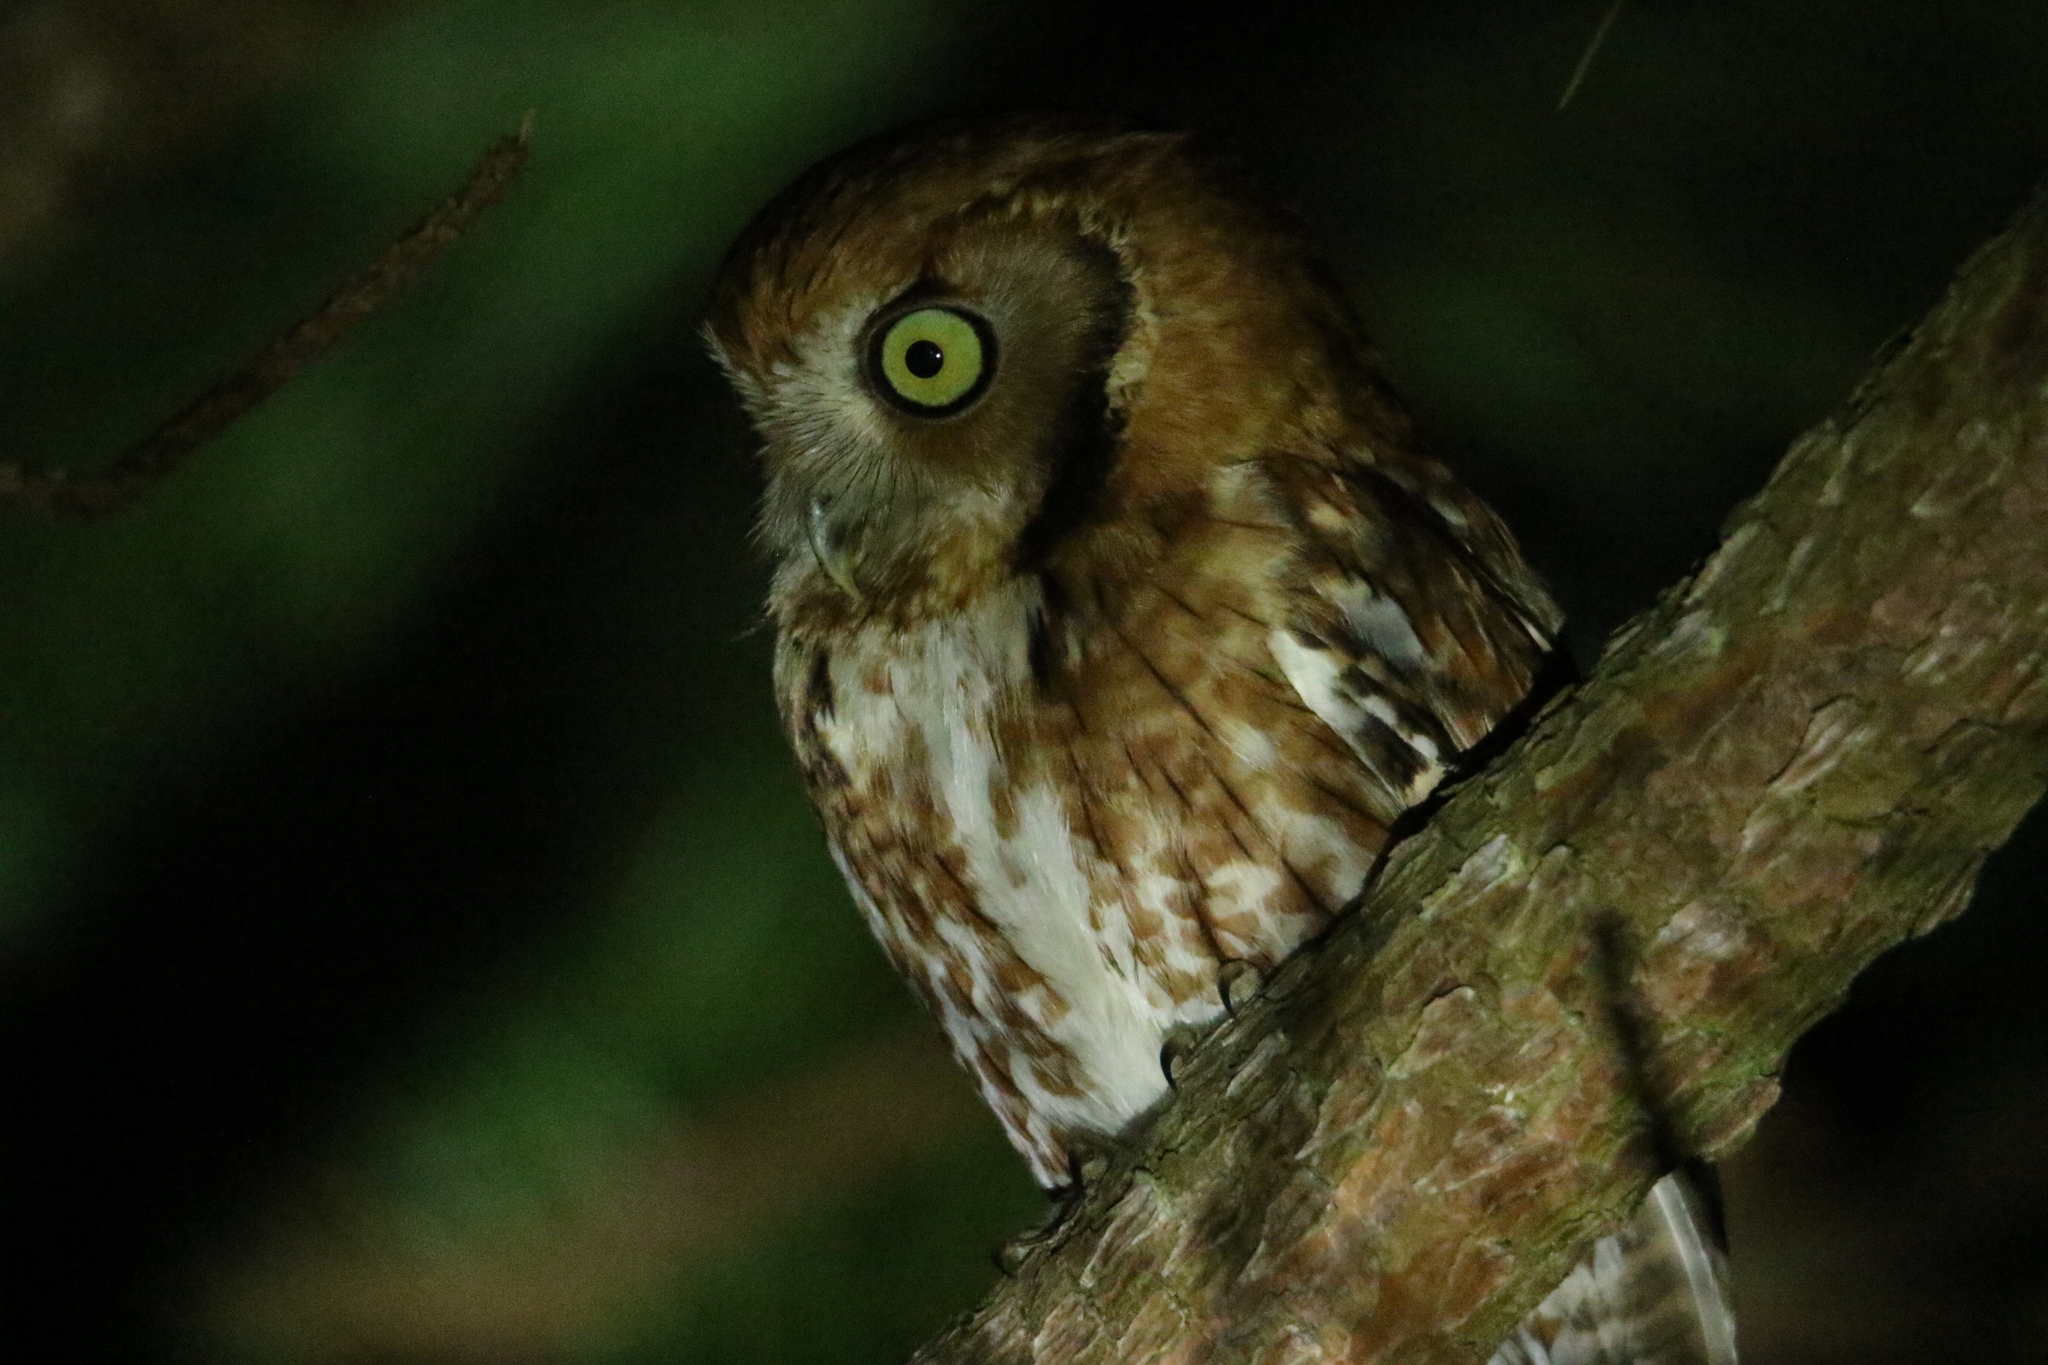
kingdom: Animalia
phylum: Chordata
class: Aves
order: Strigiformes
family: Strigidae
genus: Megascops
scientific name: Megascops asio
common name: Eastern screech-owl
